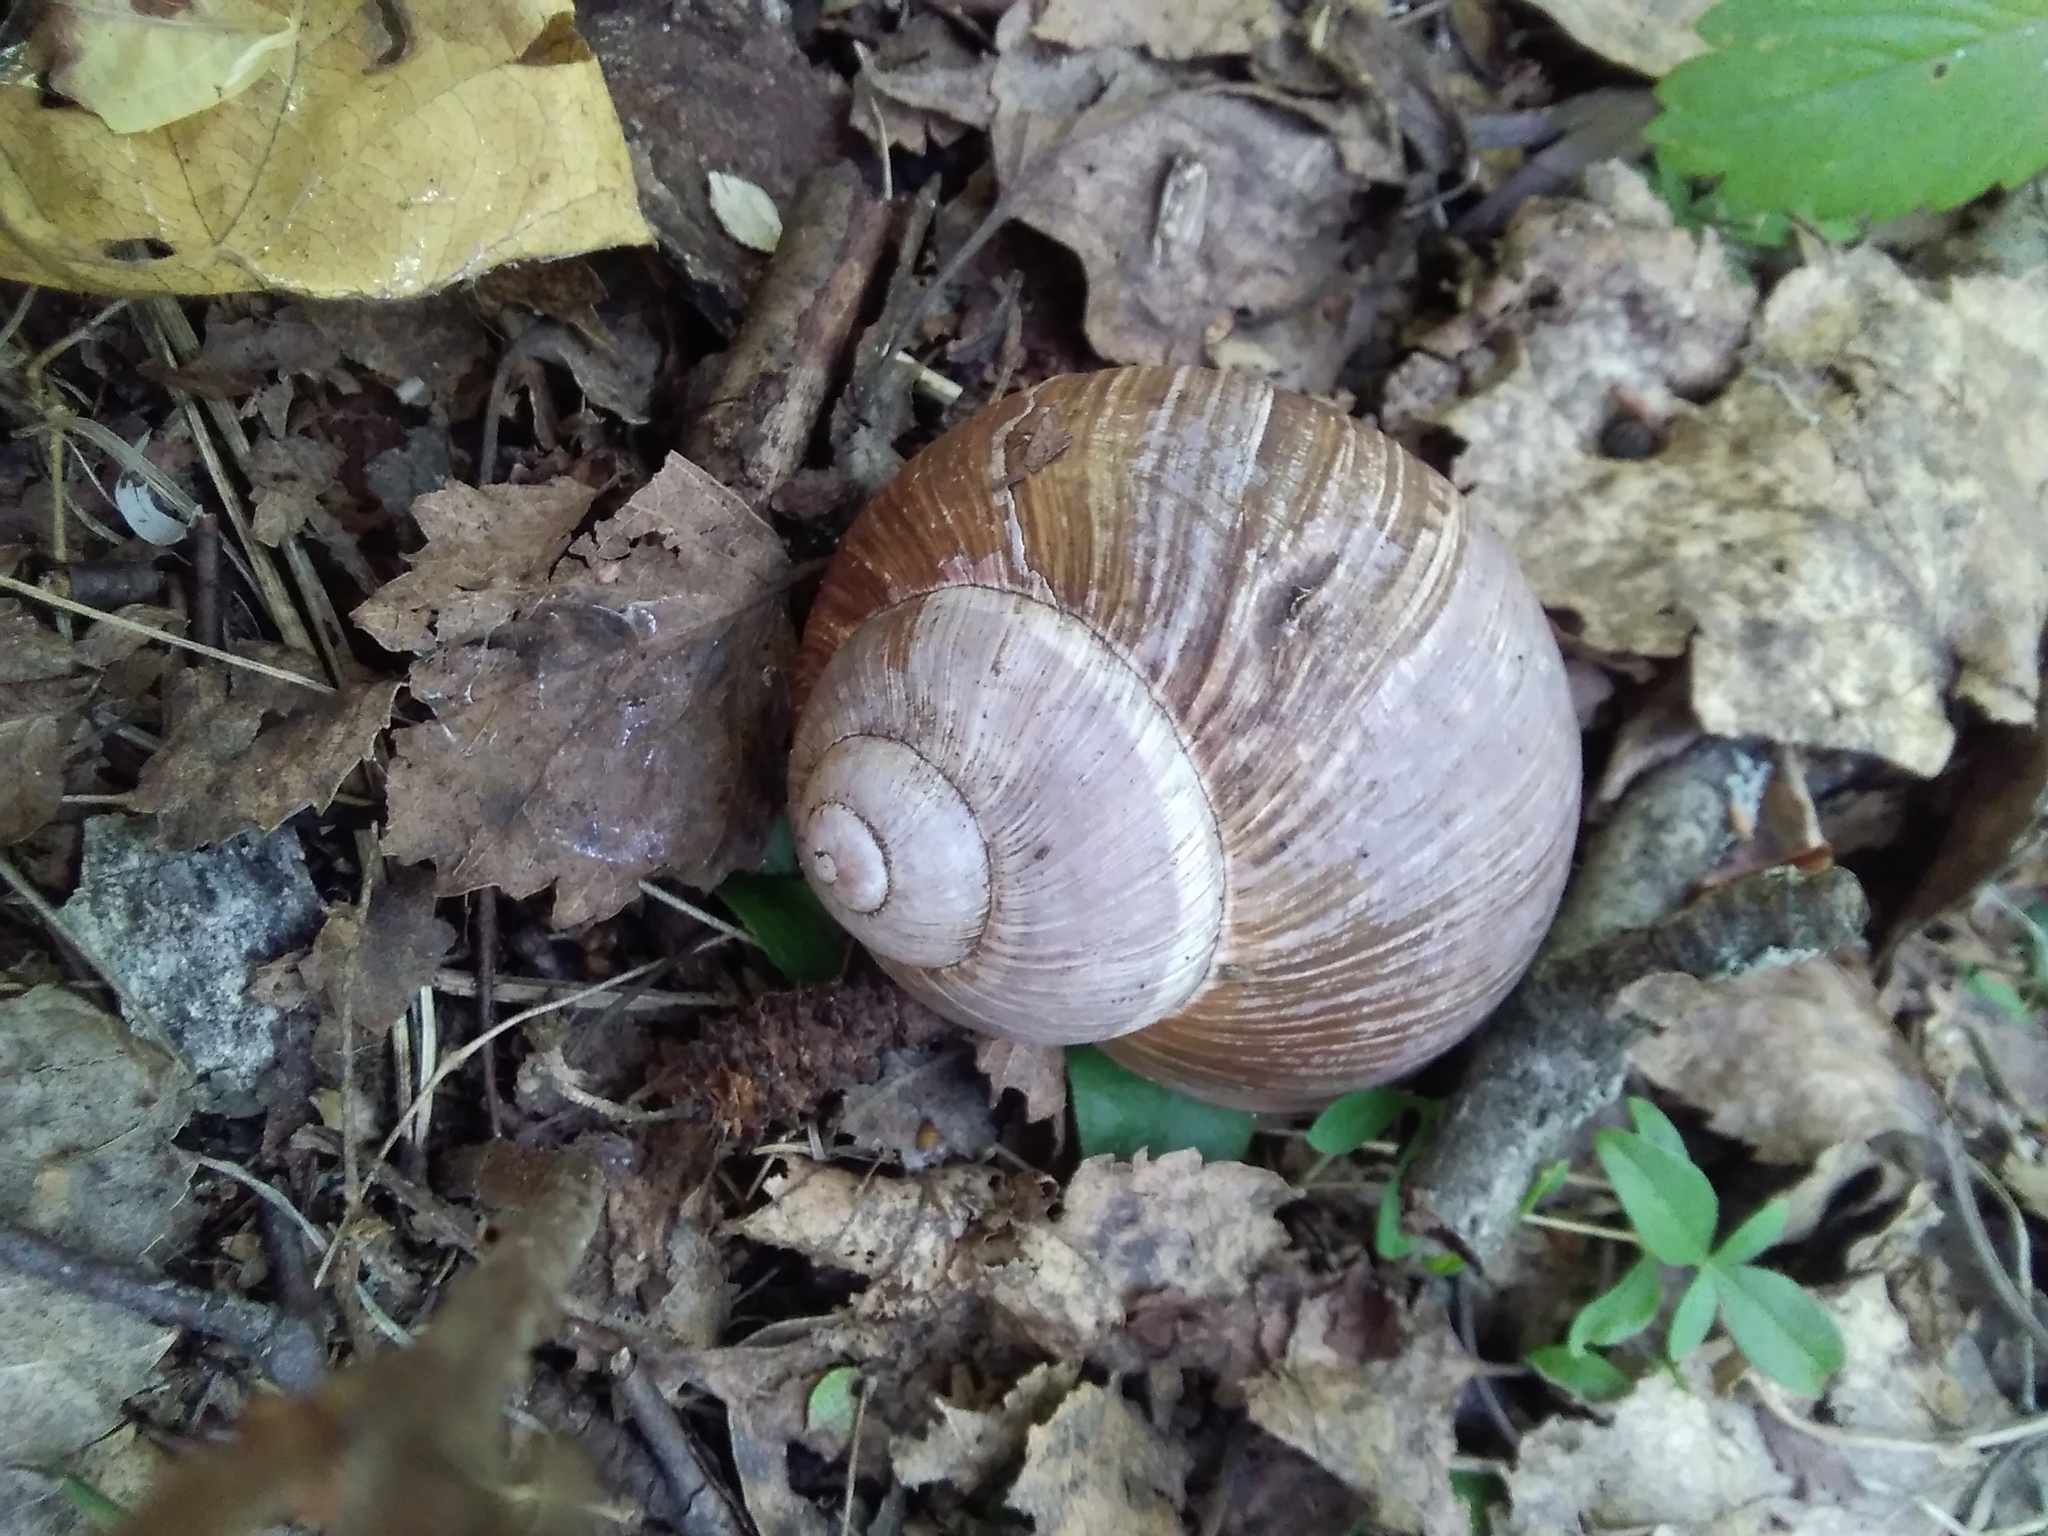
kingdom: Animalia
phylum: Mollusca
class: Gastropoda
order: Stylommatophora
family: Helicidae
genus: Helix
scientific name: Helix pomatia
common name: Roman snail
